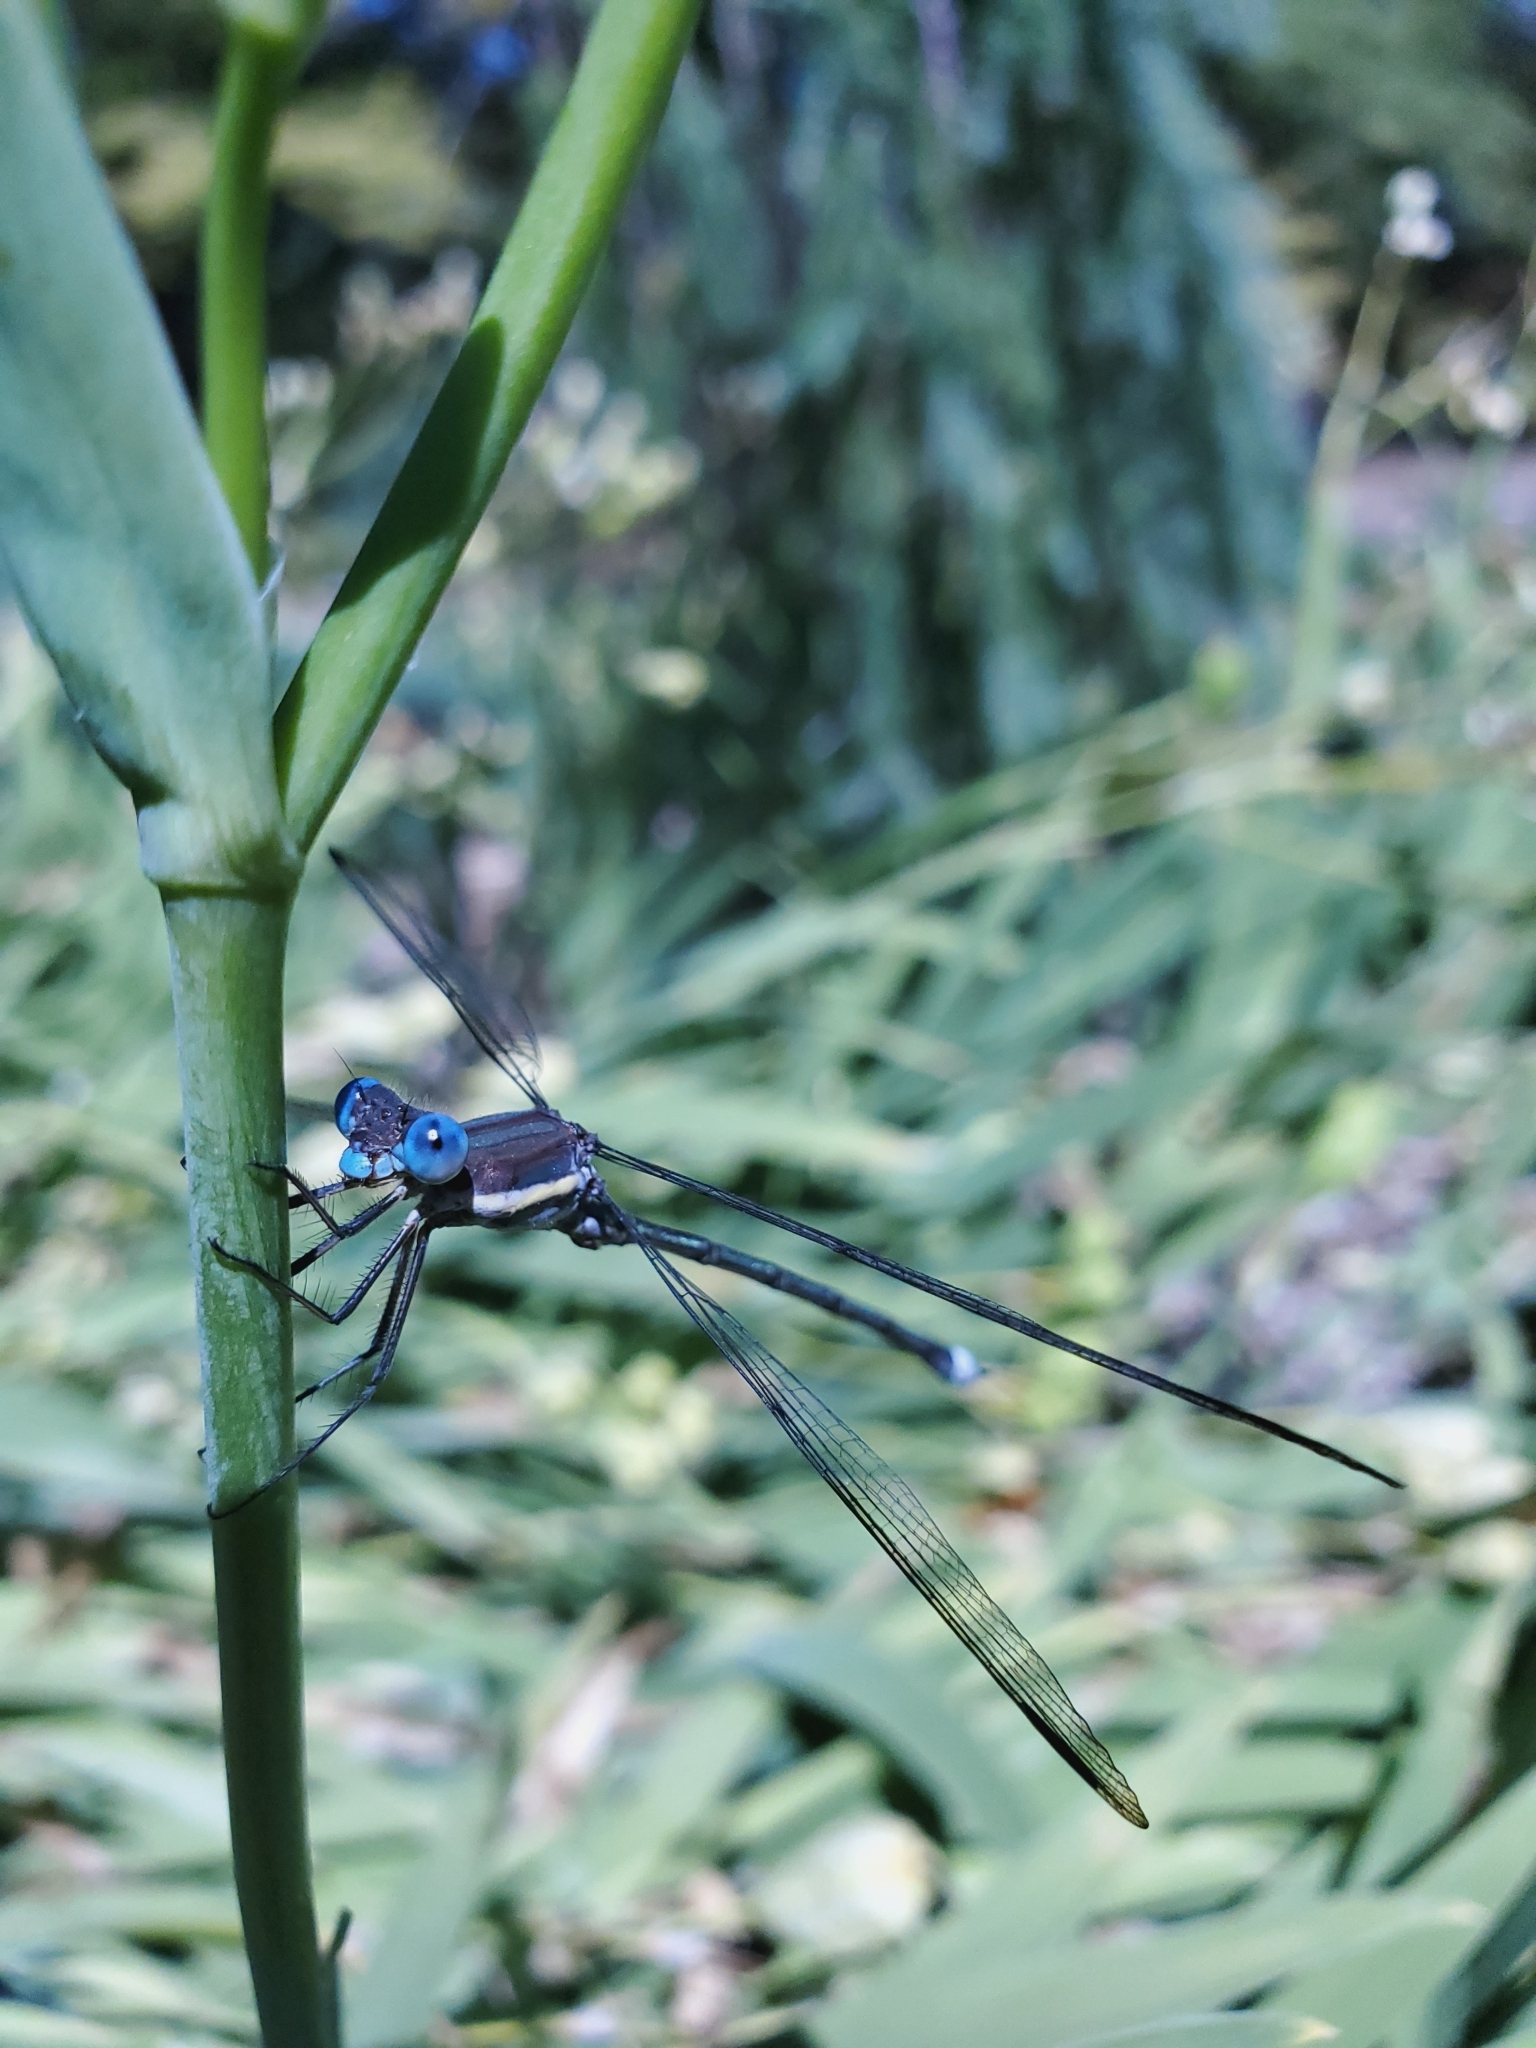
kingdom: Animalia
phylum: Arthropoda
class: Insecta
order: Odonata
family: Lestidae
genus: Archilestes
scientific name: Archilestes grandis
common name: Great spreadwing
